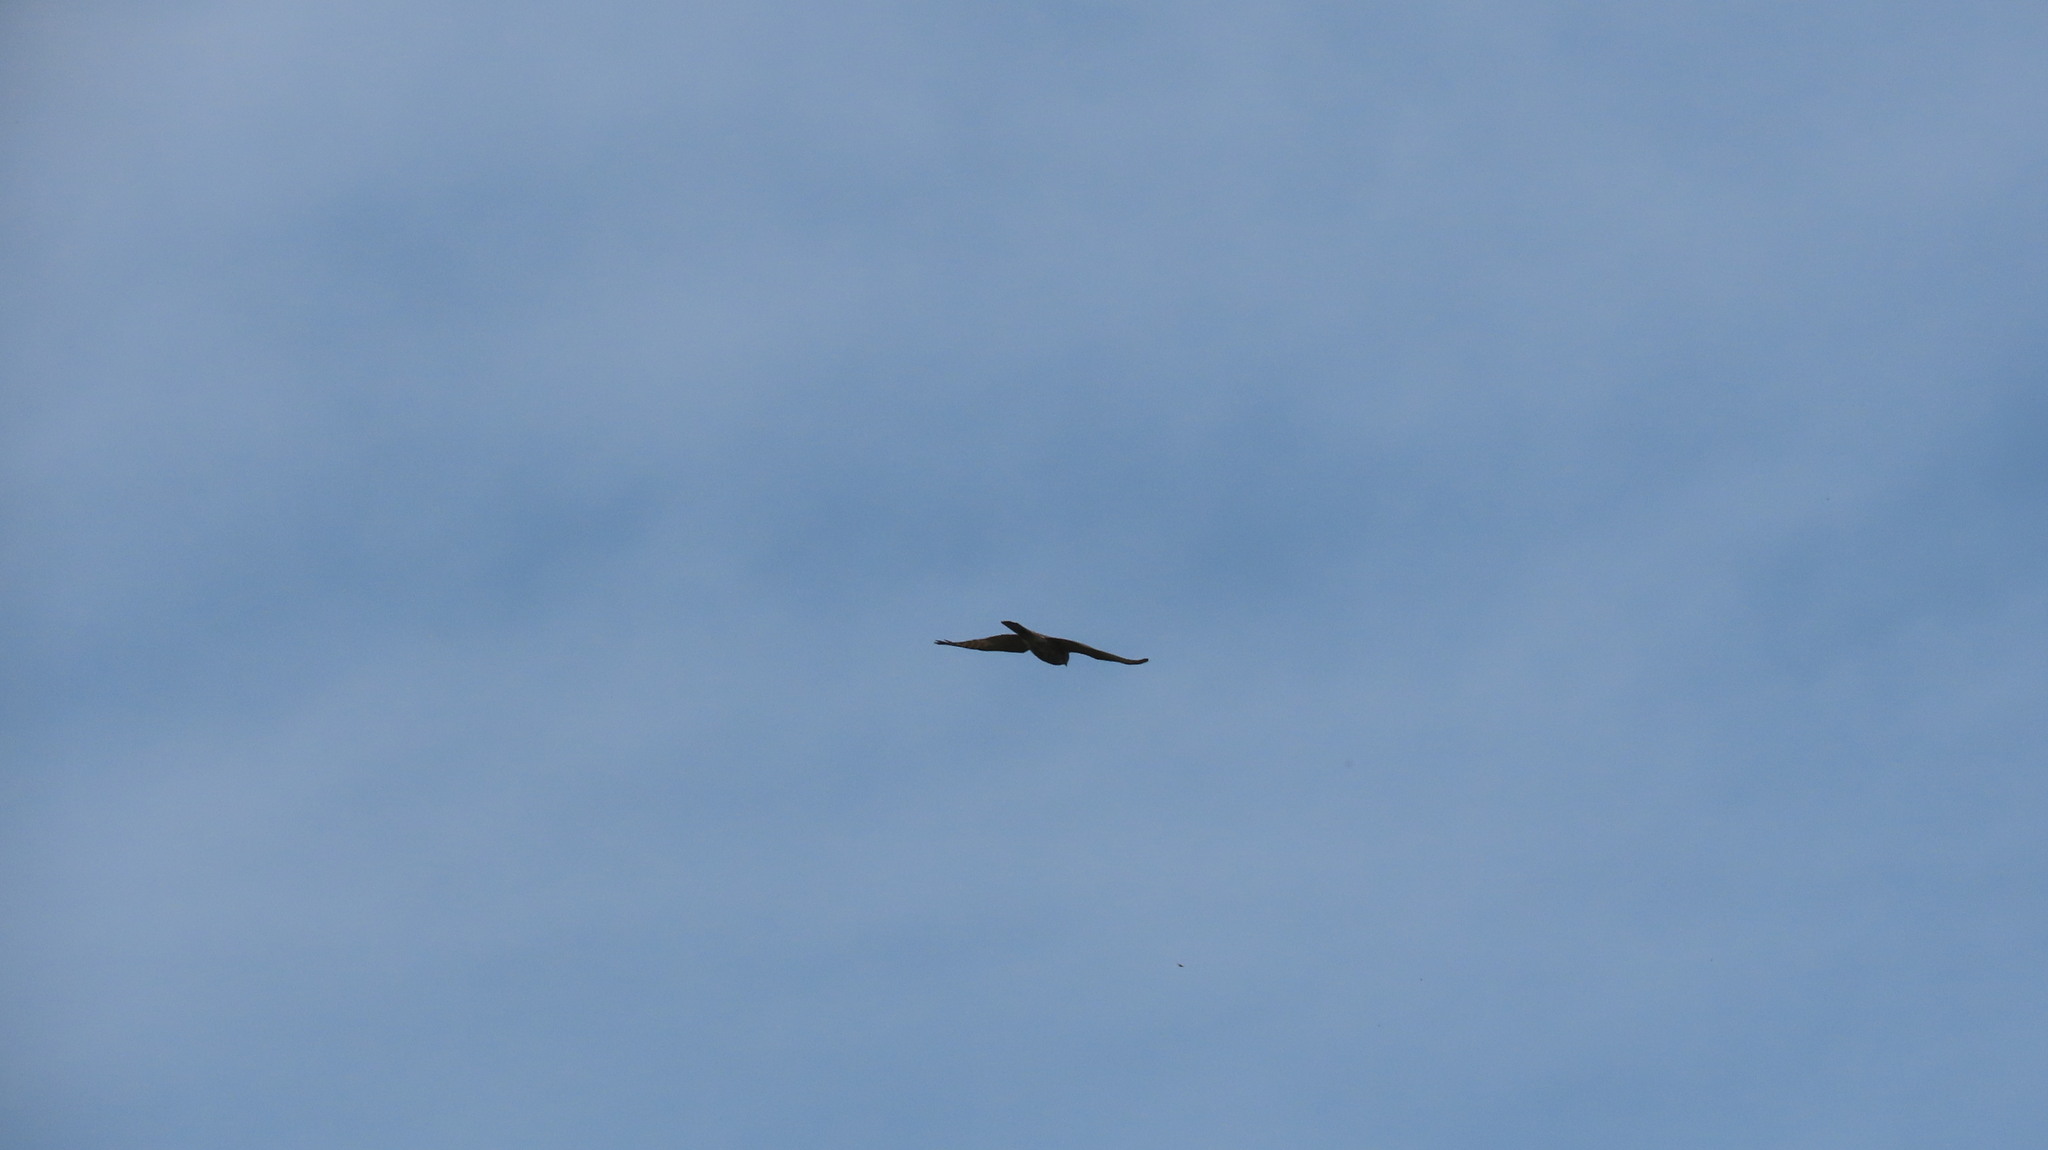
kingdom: Animalia
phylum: Chordata
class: Aves
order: Accipitriformes
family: Accipitridae
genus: Accipiter
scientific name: Accipiter badius
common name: Shikra
